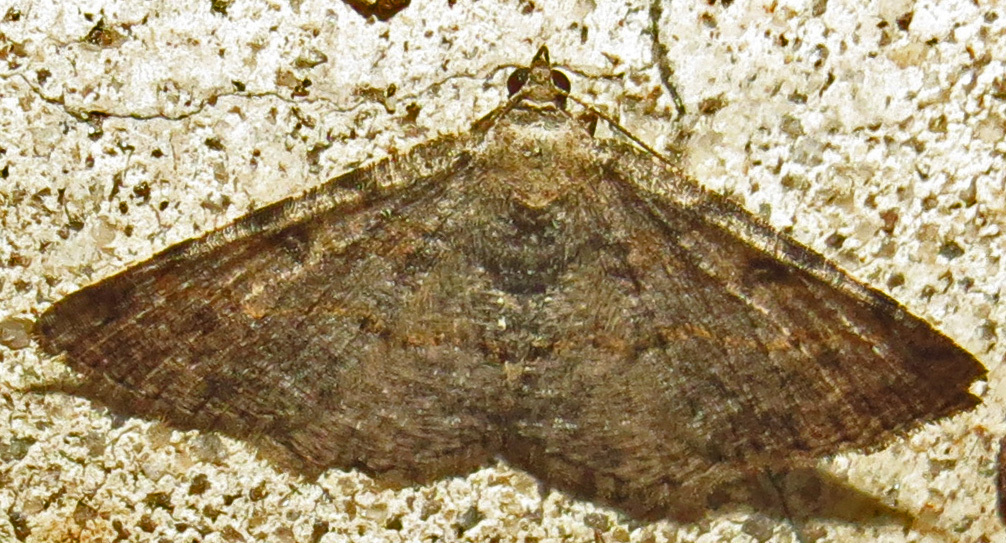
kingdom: Animalia
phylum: Arthropoda
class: Insecta
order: Lepidoptera
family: Geometridae
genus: Digrammia
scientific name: Digrammia gnophosaria
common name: Hollow-spotted angle
